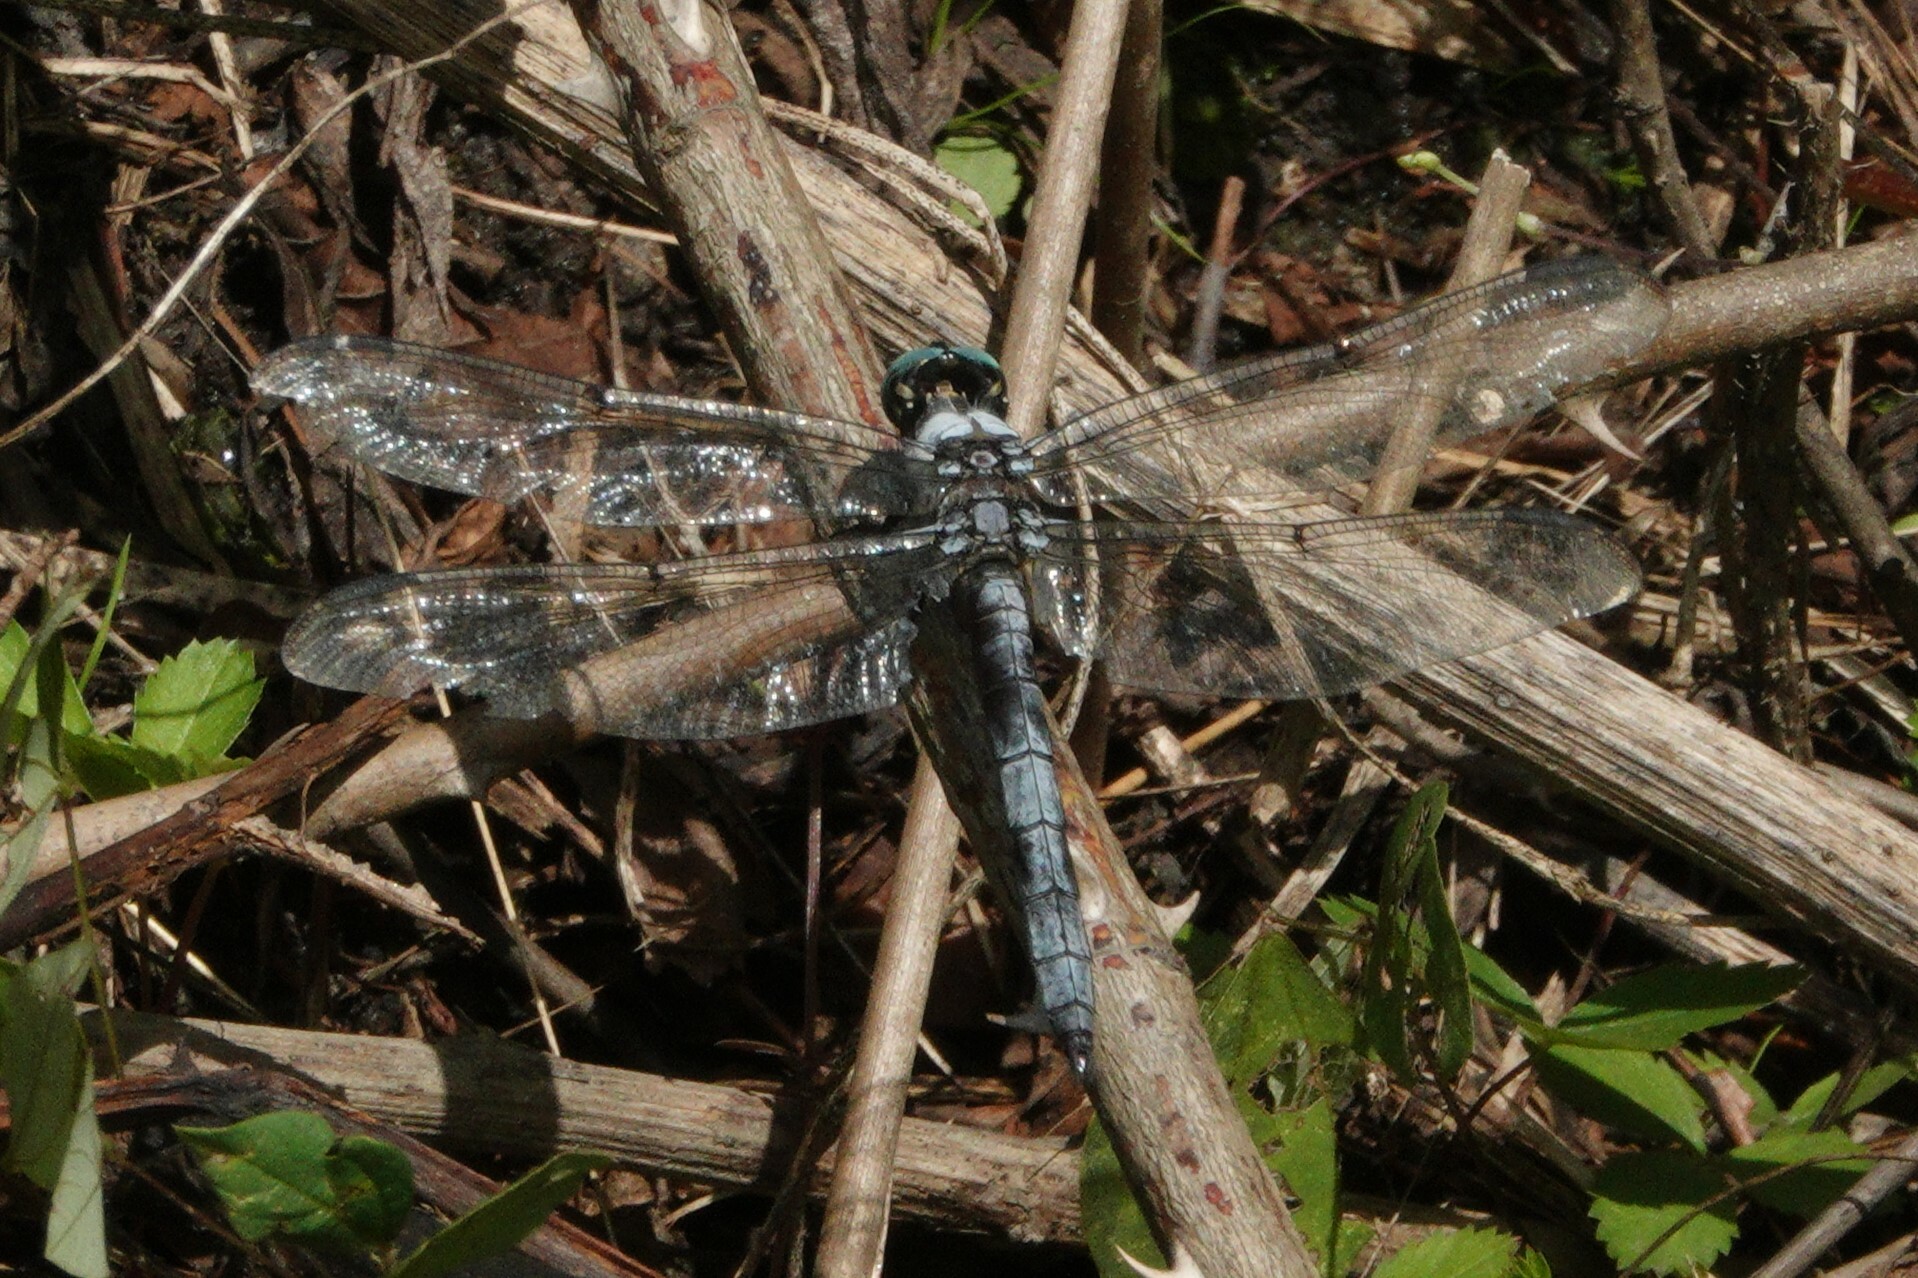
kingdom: Animalia
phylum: Arthropoda
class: Insecta
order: Odonata
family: Libellulidae
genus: Libellula
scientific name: Libellula vibrans
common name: Great blue skimmer
